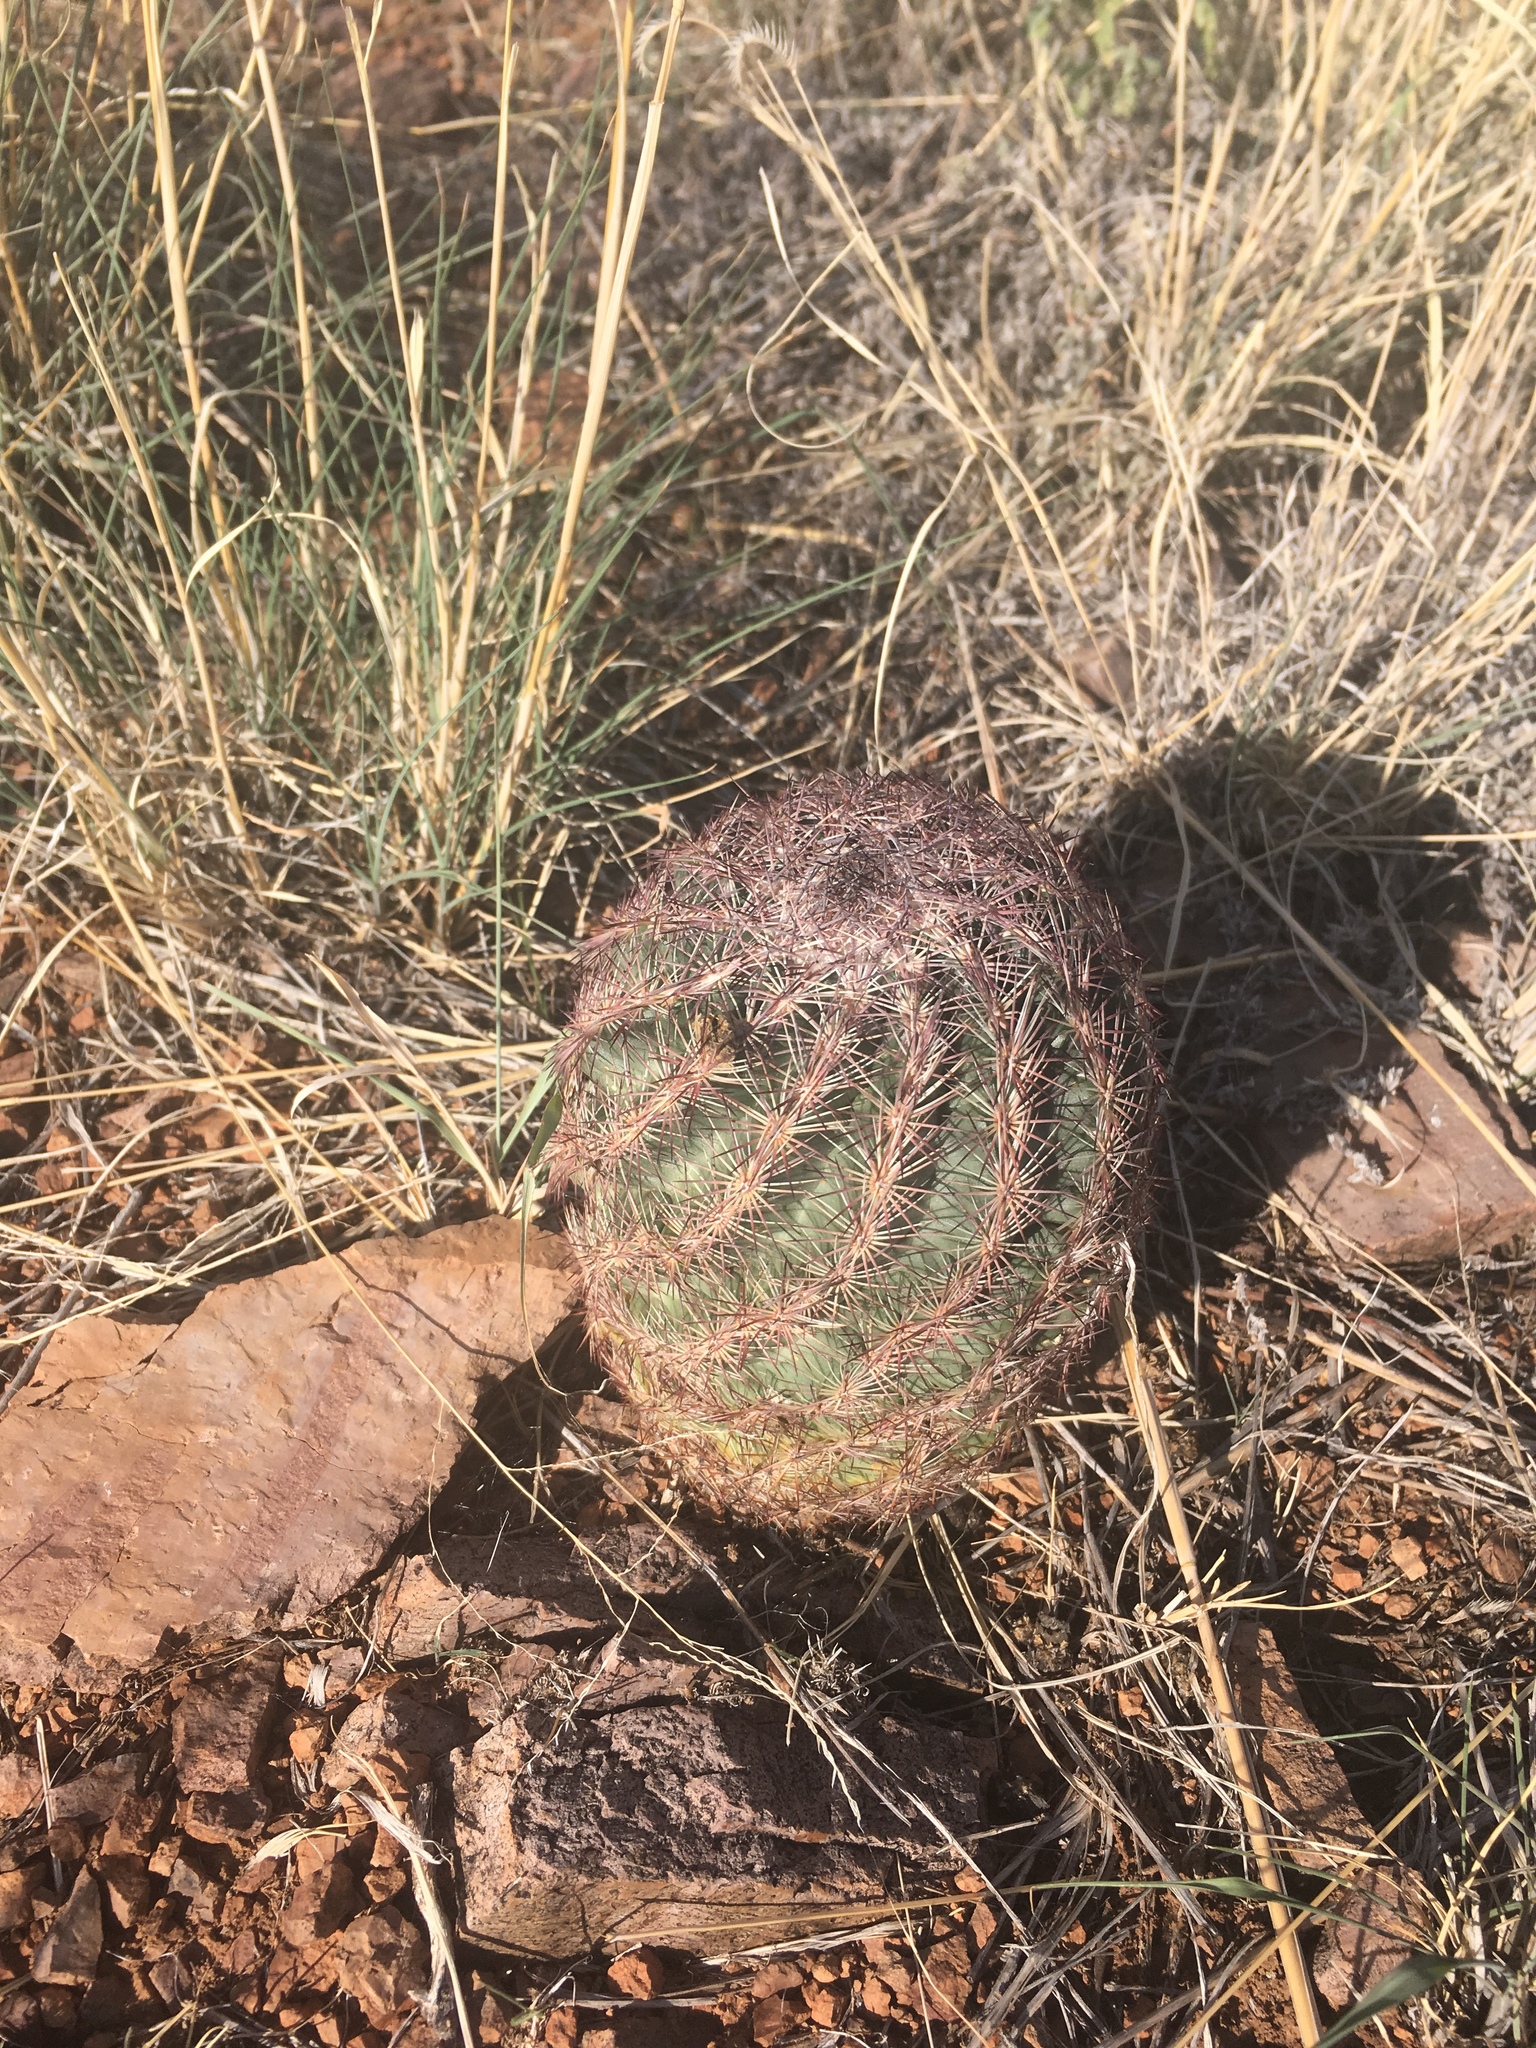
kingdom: Plantae
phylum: Tracheophyta
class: Magnoliopsida
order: Caryophyllales
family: Cactaceae
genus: Sclerocactus
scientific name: Sclerocactus intertextus
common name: White fish-hook cactus
